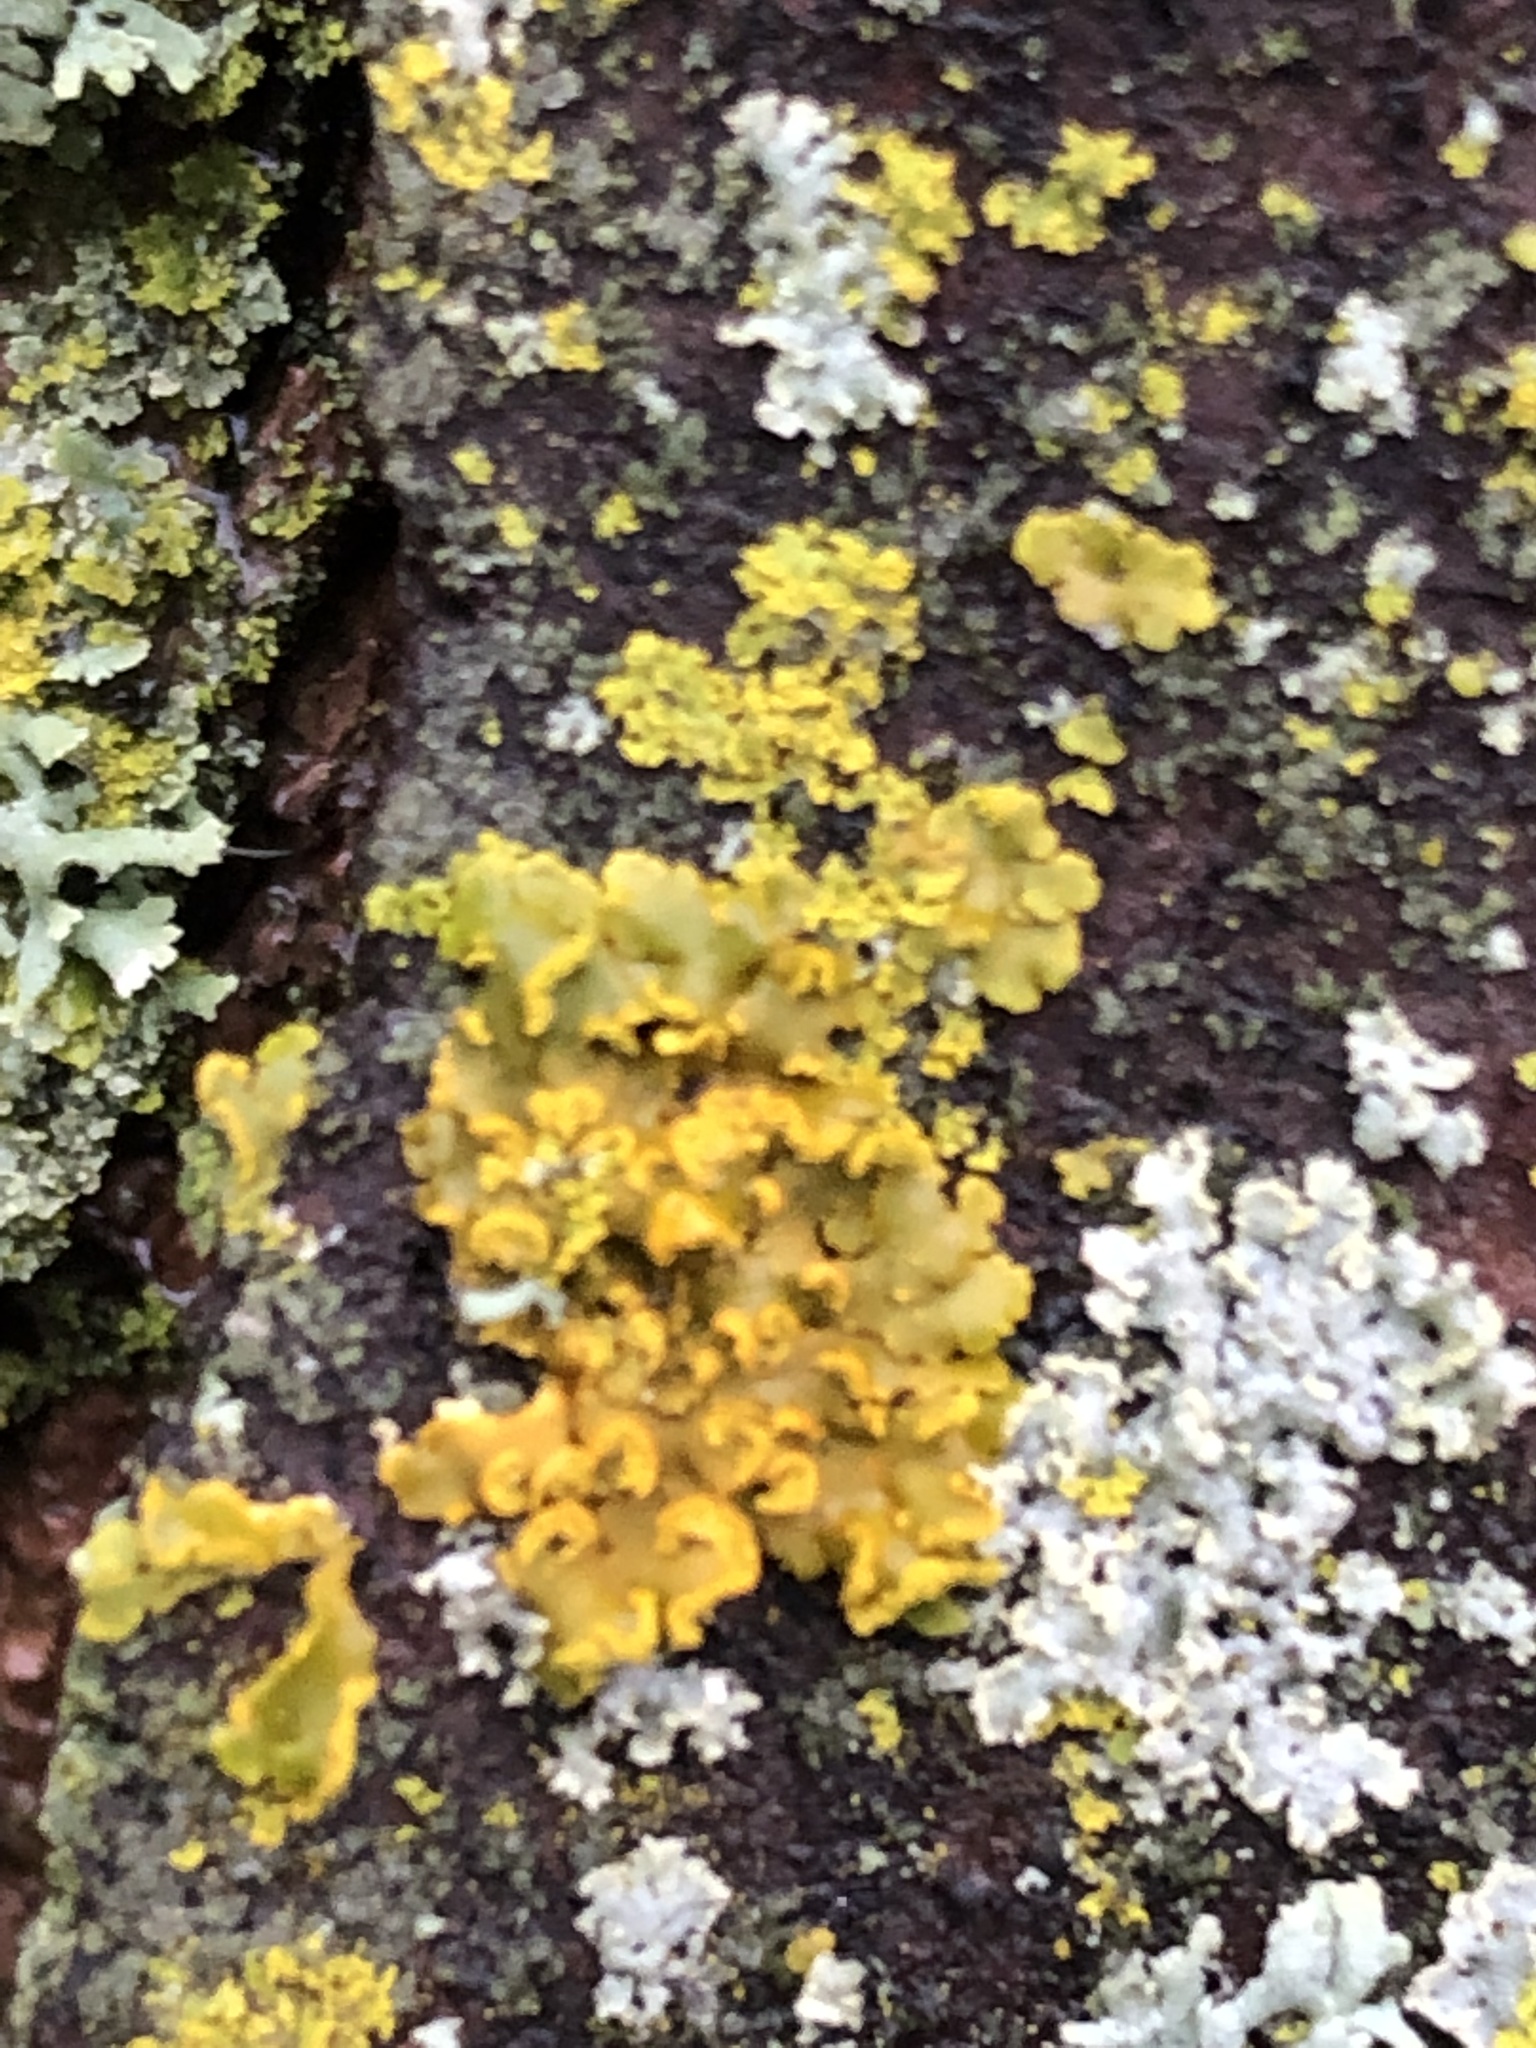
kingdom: Fungi
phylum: Ascomycota
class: Lecanoromycetes
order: Teloschistales
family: Teloschistaceae
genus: Oxneria
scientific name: Oxneria fallax
